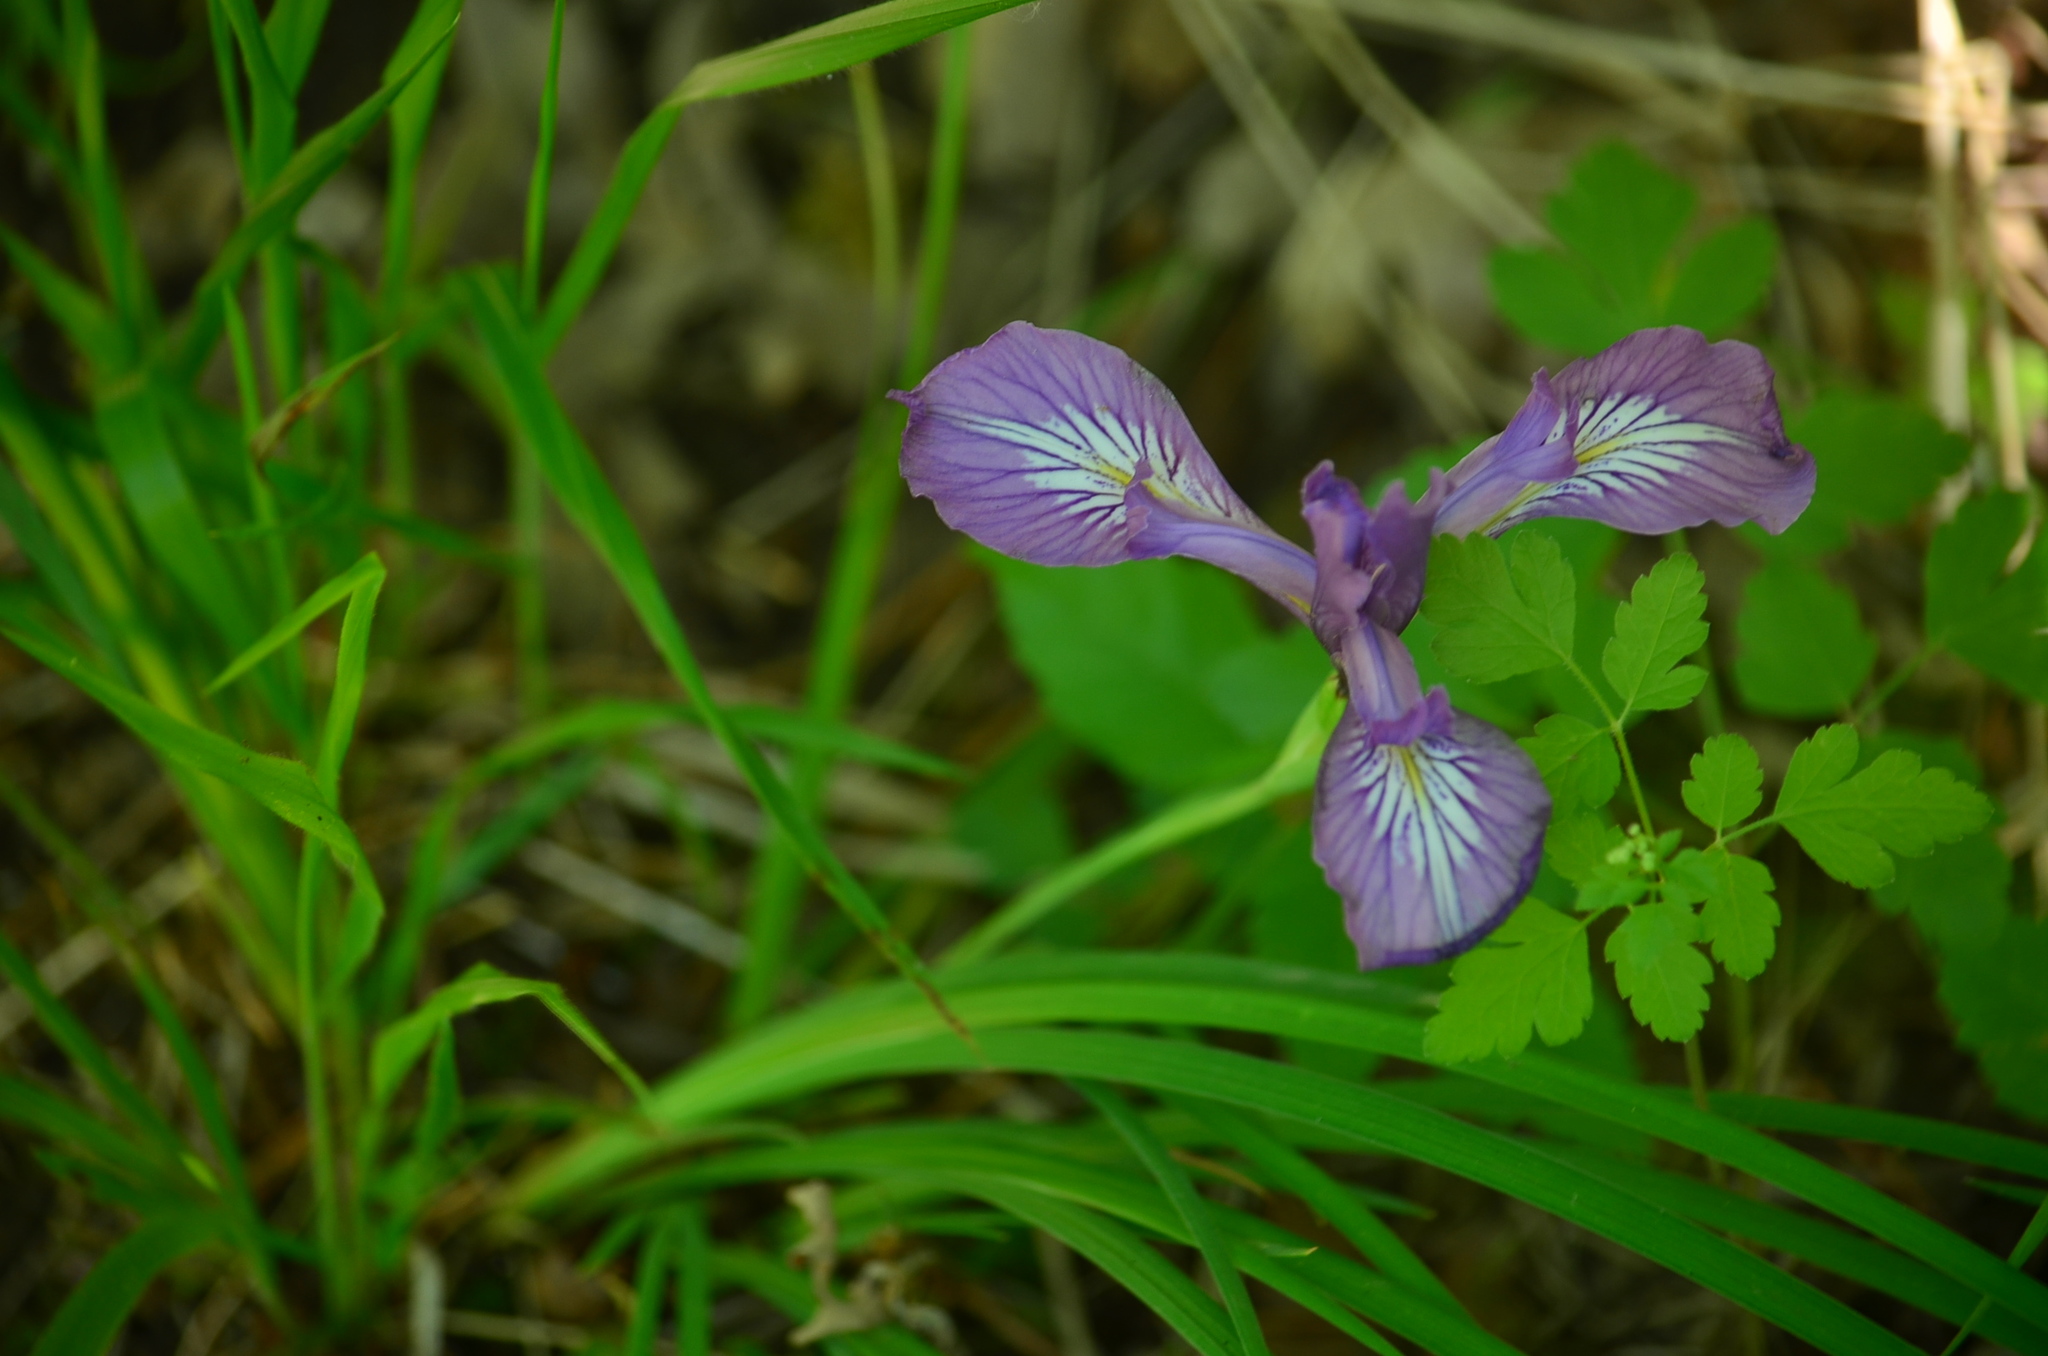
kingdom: Plantae
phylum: Tracheophyta
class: Liliopsida
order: Asparagales
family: Iridaceae
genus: Iris
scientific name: Iris tenax
